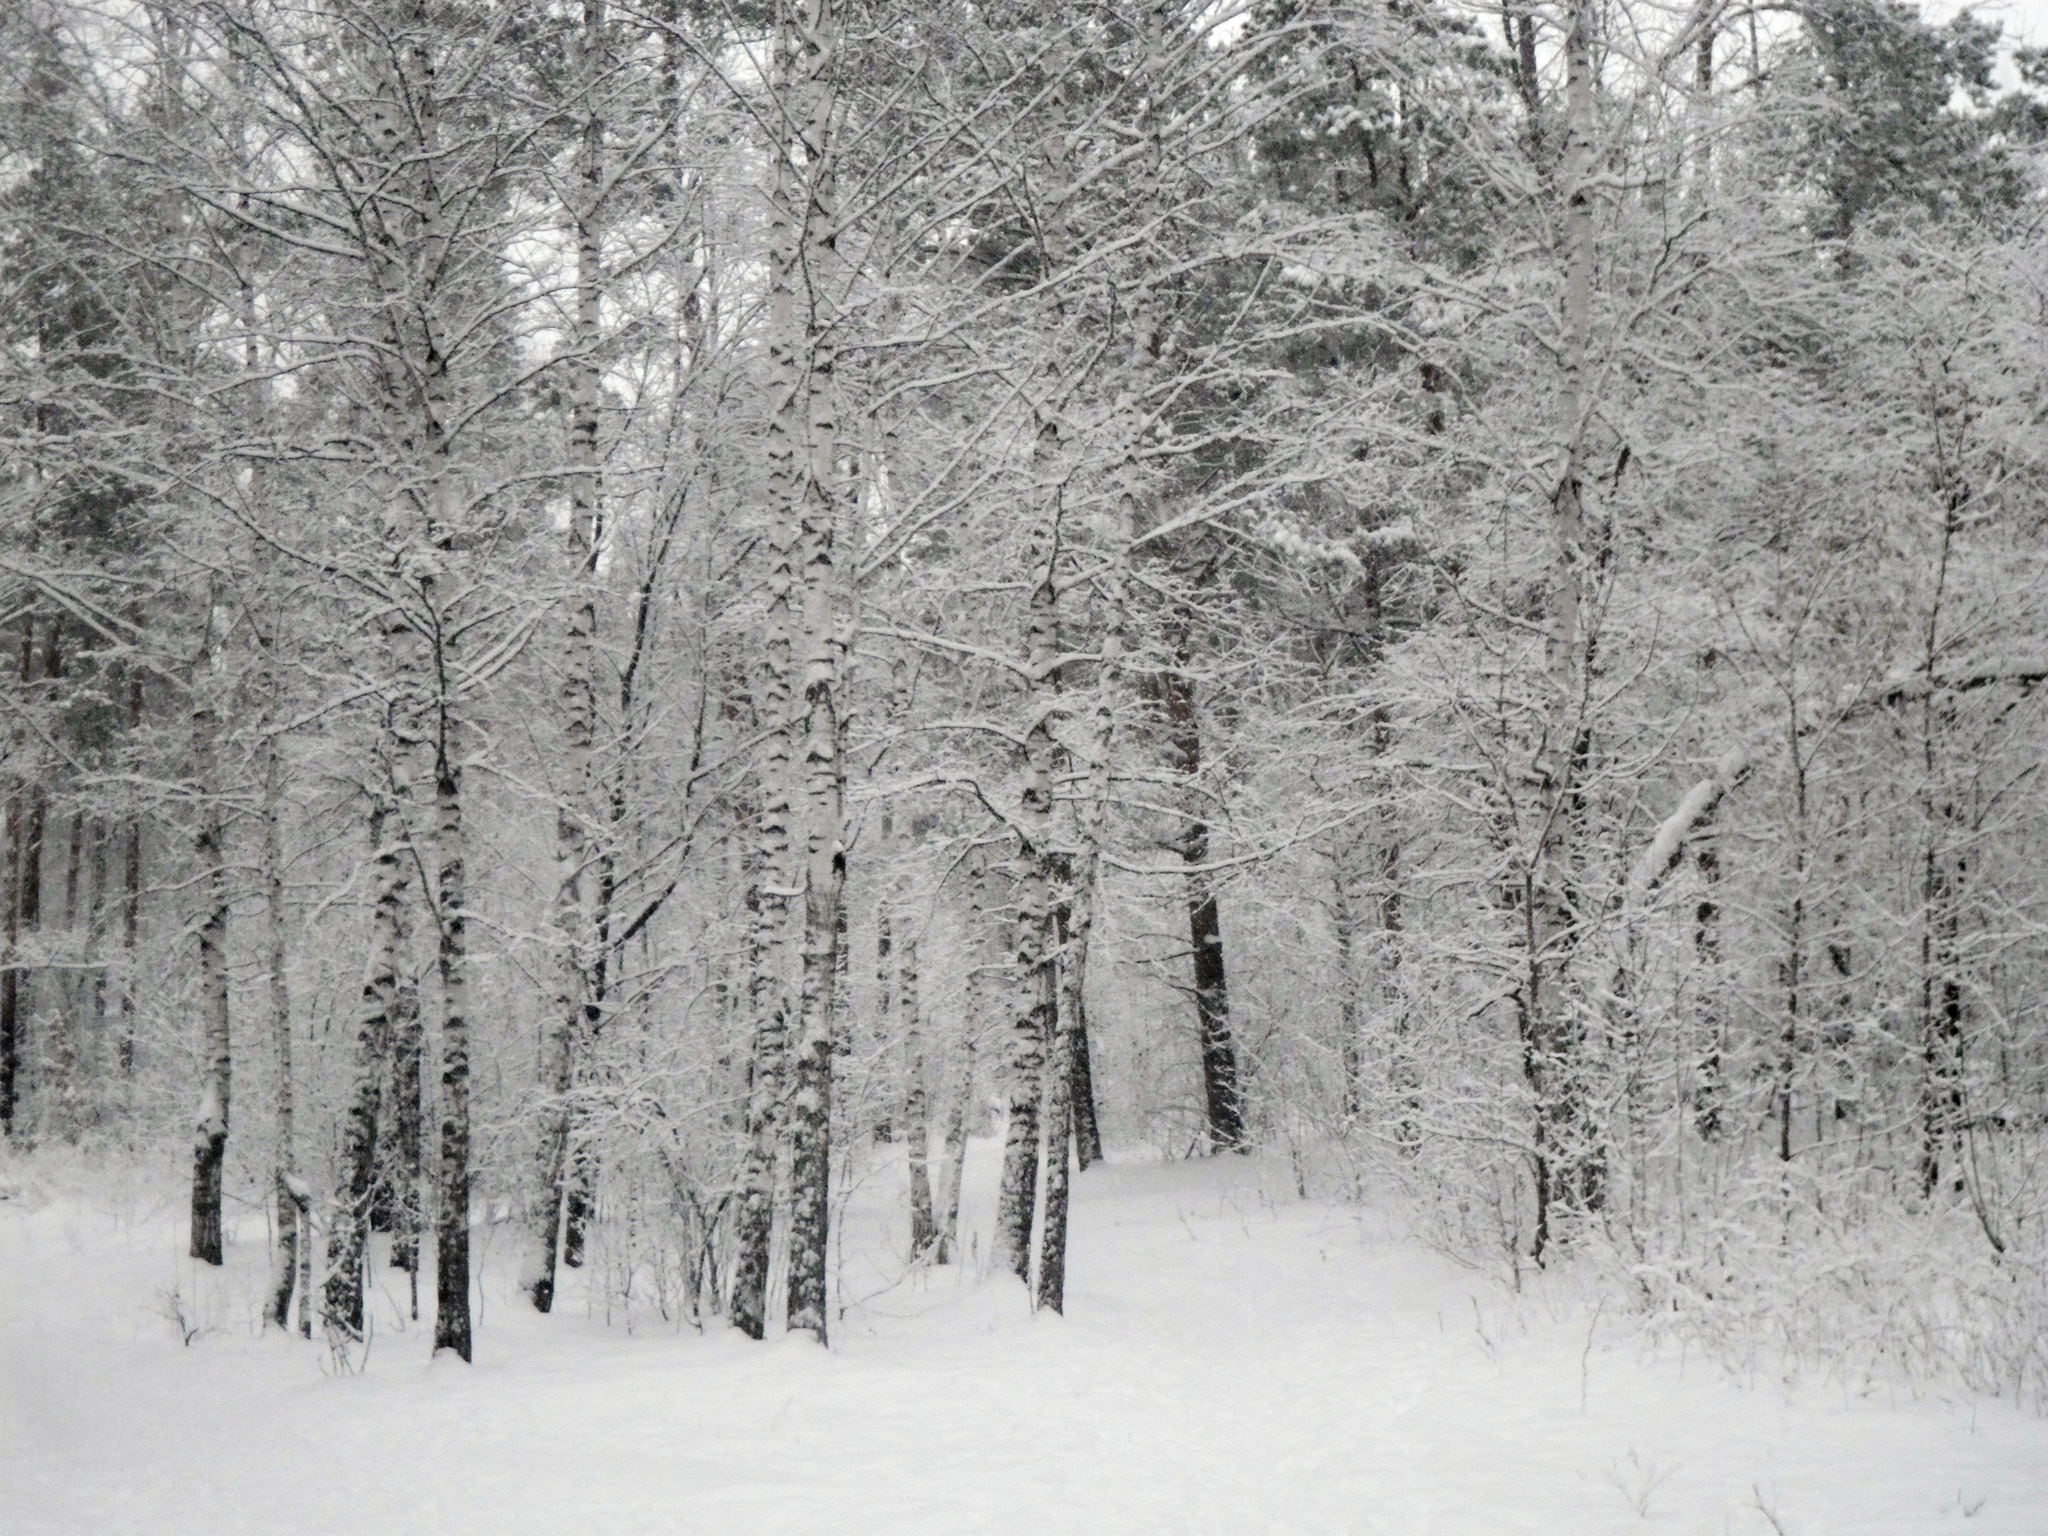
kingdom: Plantae
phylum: Tracheophyta
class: Magnoliopsida
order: Fagales
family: Betulaceae
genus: Betula
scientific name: Betula pendula
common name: Silver birch
